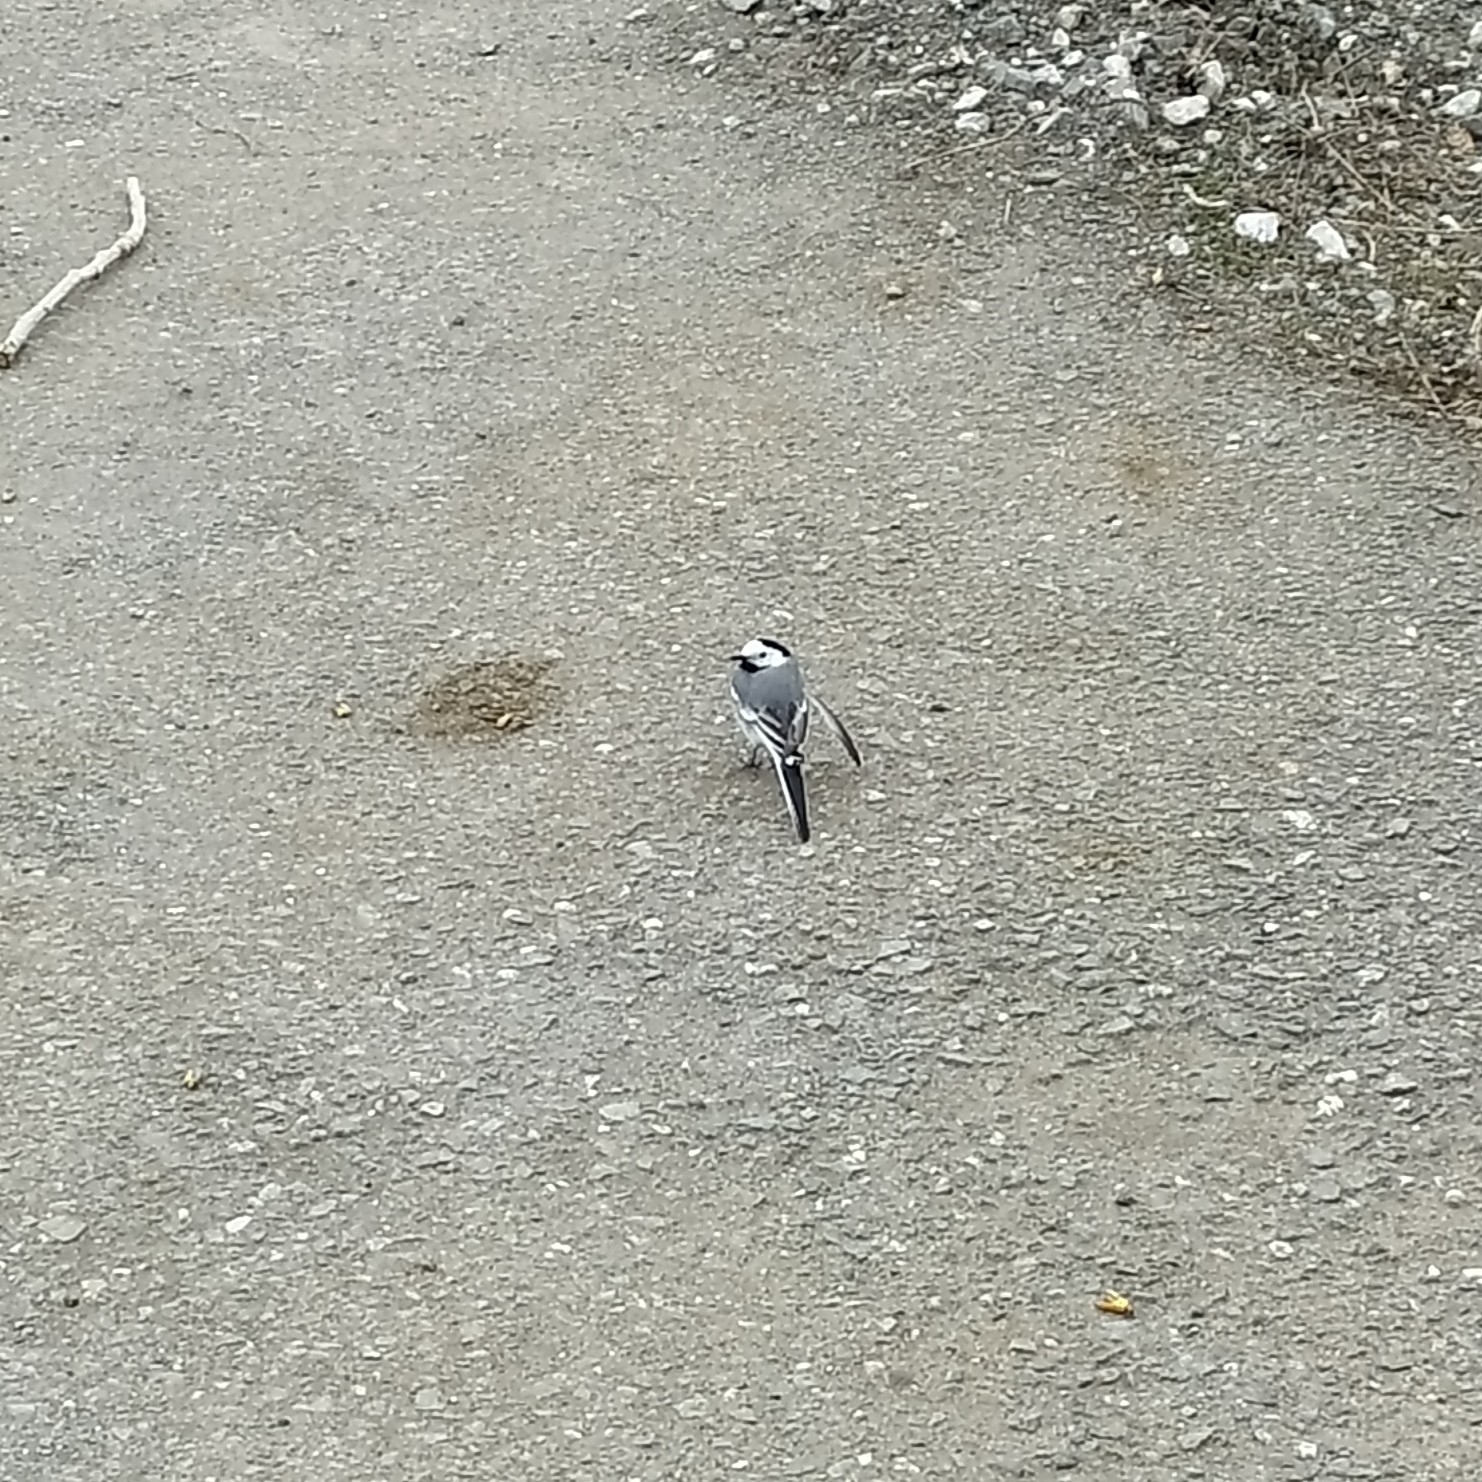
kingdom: Animalia
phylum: Chordata
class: Aves
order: Passeriformes
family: Motacillidae
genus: Motacilla
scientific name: Motacilla alba
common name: White wagtail
